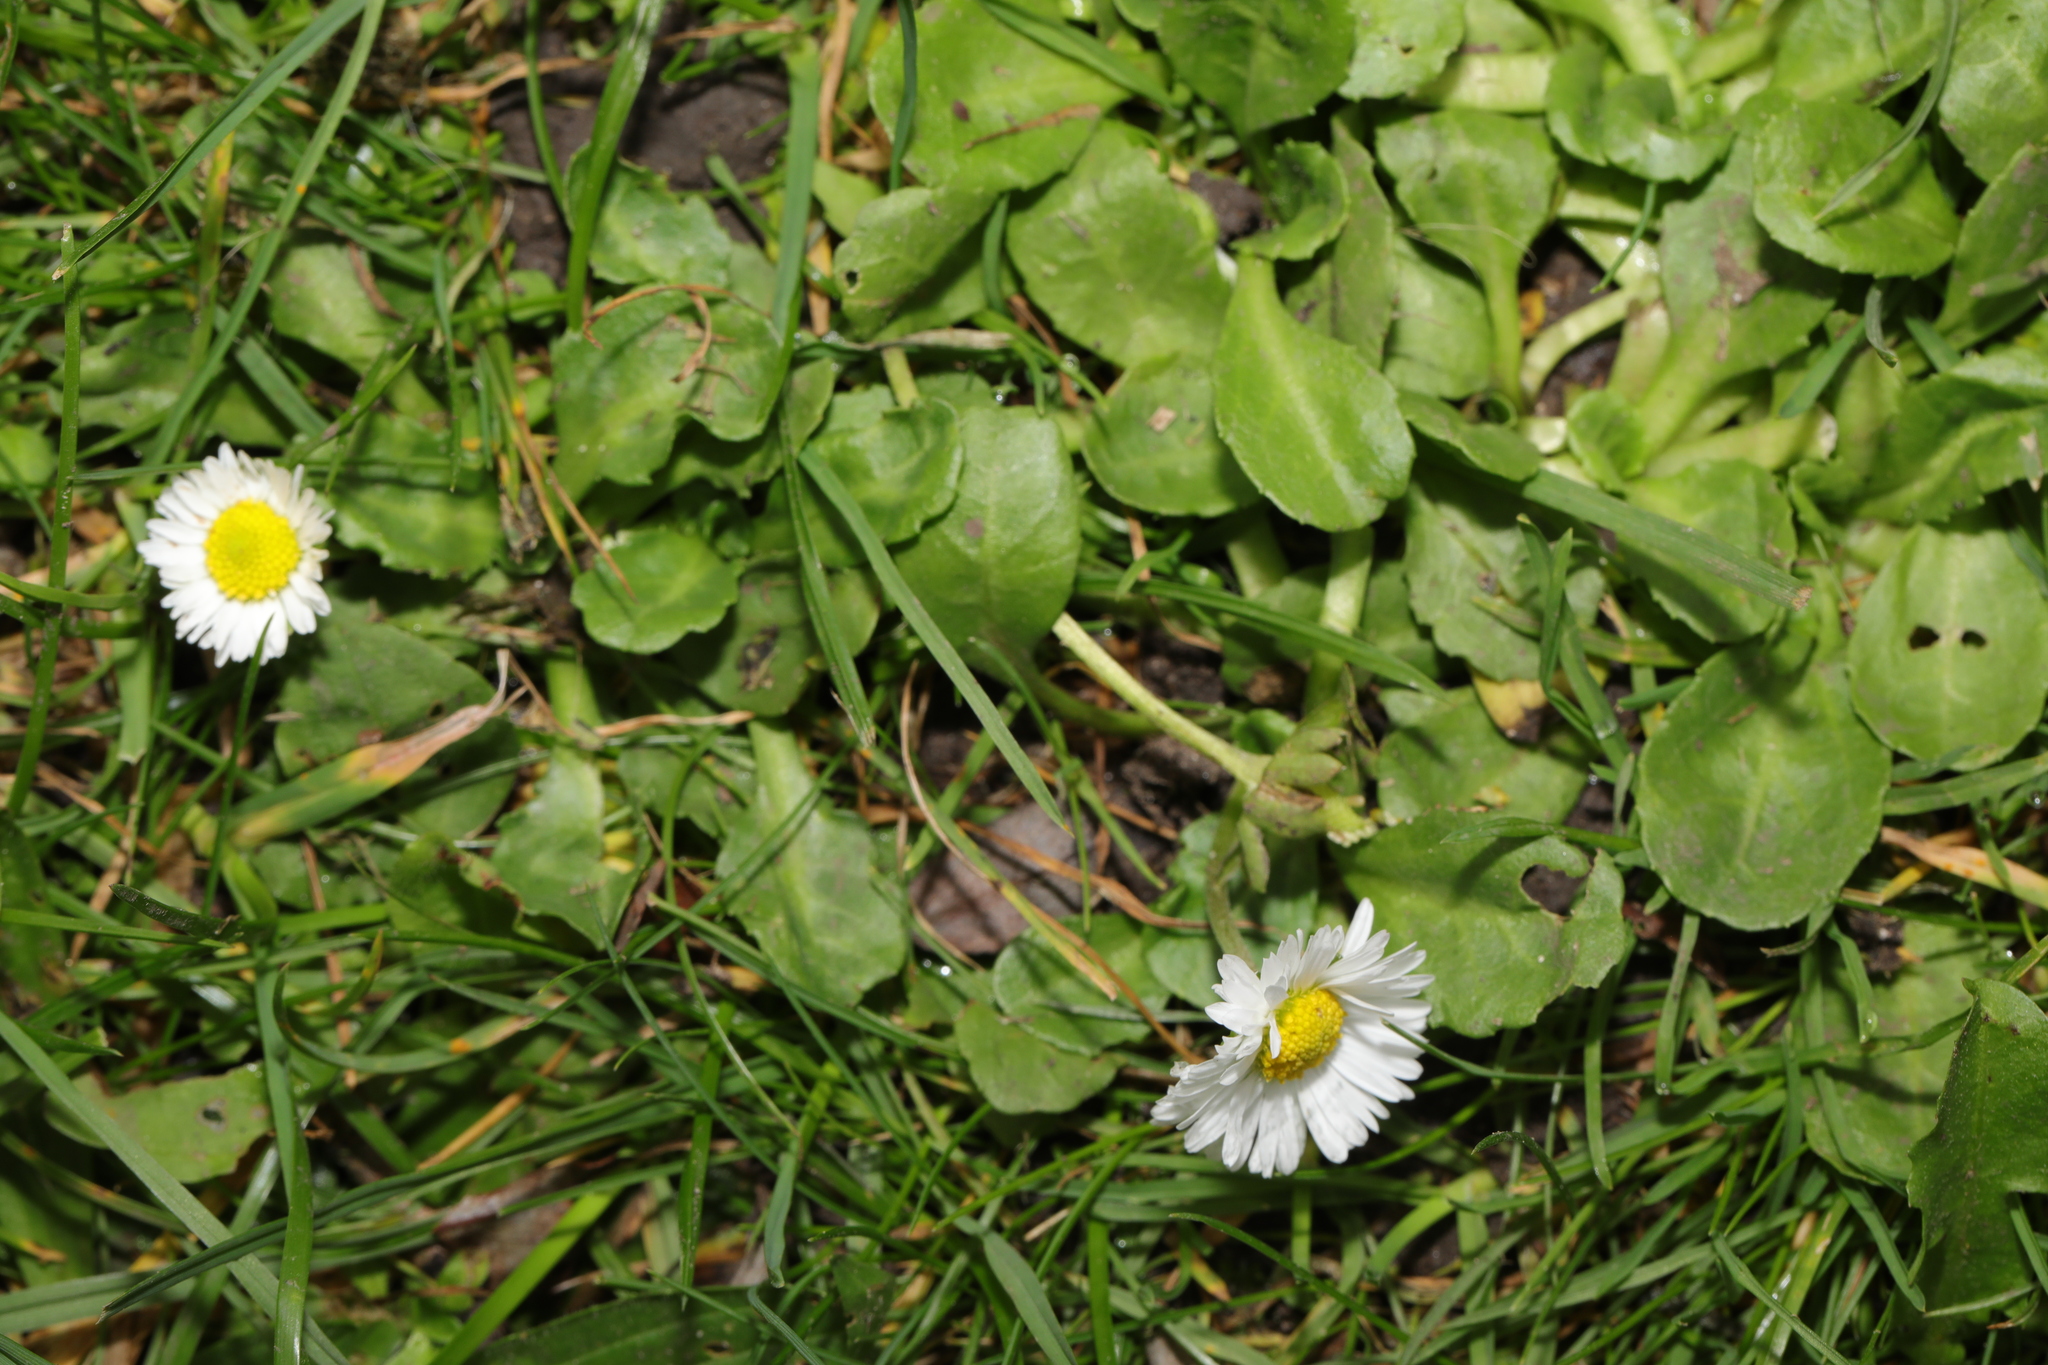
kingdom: Plantae
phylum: Tracheophyta
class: Magnoliopsida
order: Asterales
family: Asteraceae
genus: Bellis
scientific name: Bellis perennis
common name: Lawndaisy
